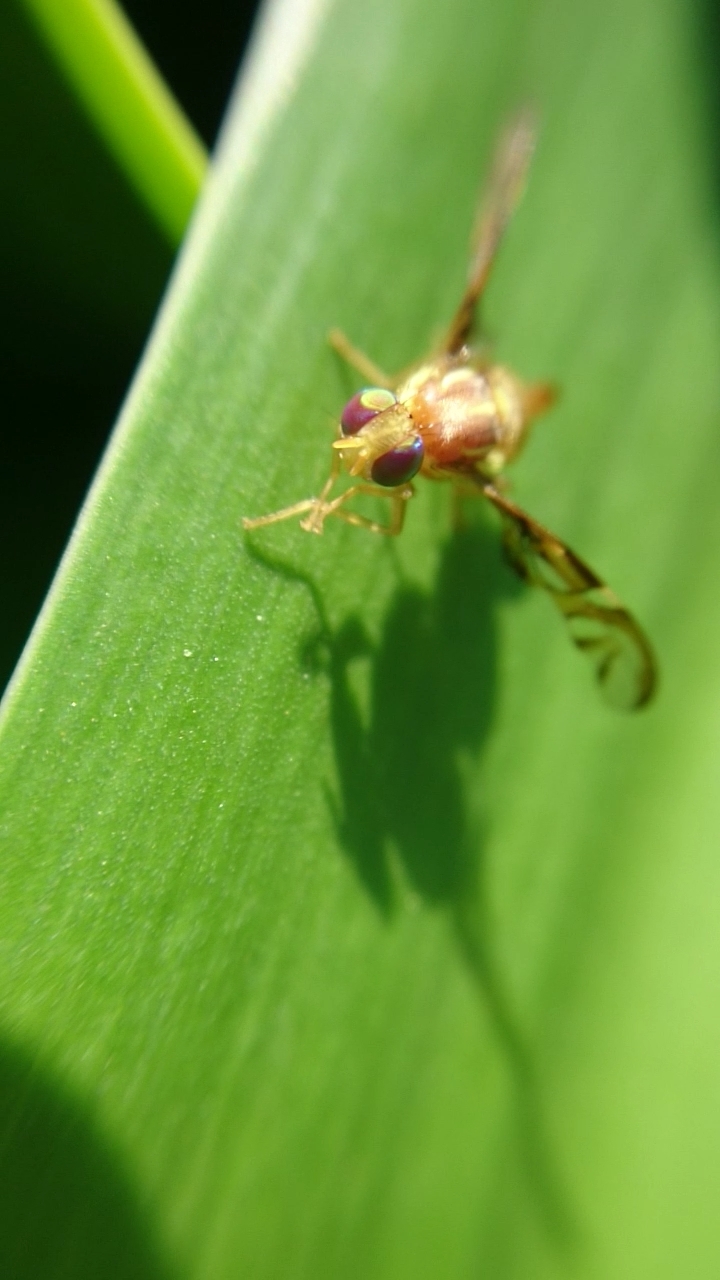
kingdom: Animalia
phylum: Arthropoda
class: Insecta
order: Diptera
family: Tephritidae
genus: Anastrepha
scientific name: Anastrepha fratercula
